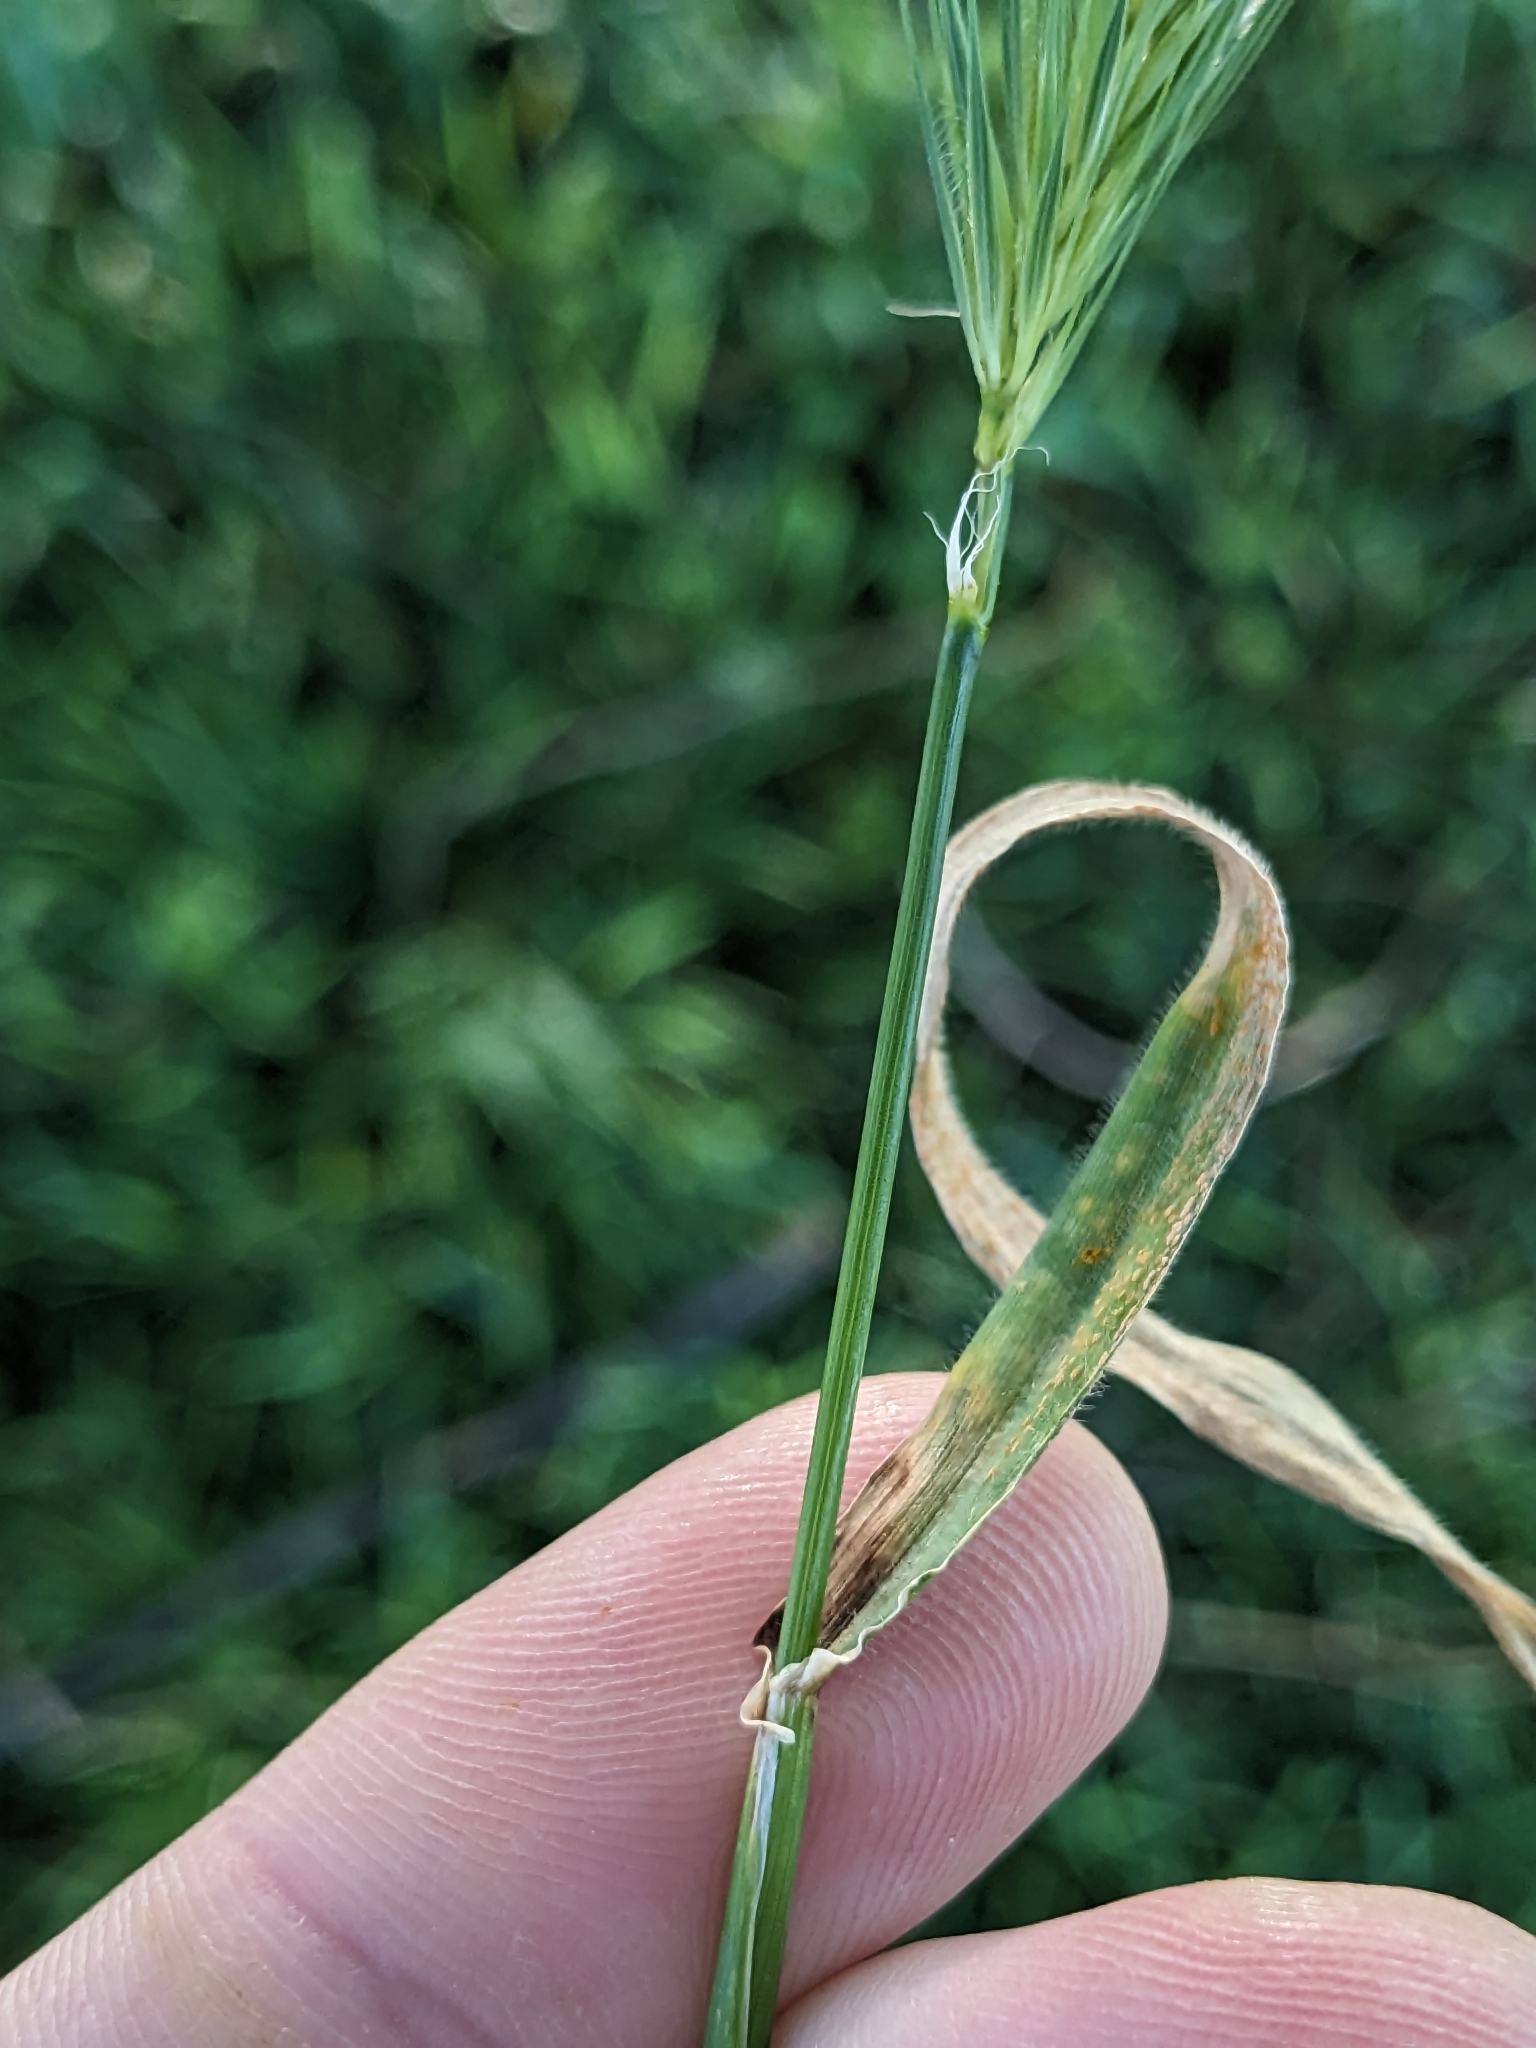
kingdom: Plantae
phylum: Tracheophyta
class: Liliopsida
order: Poales
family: Poaceae
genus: Hordeum
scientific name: Hordeum murinum
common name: Wall barley
